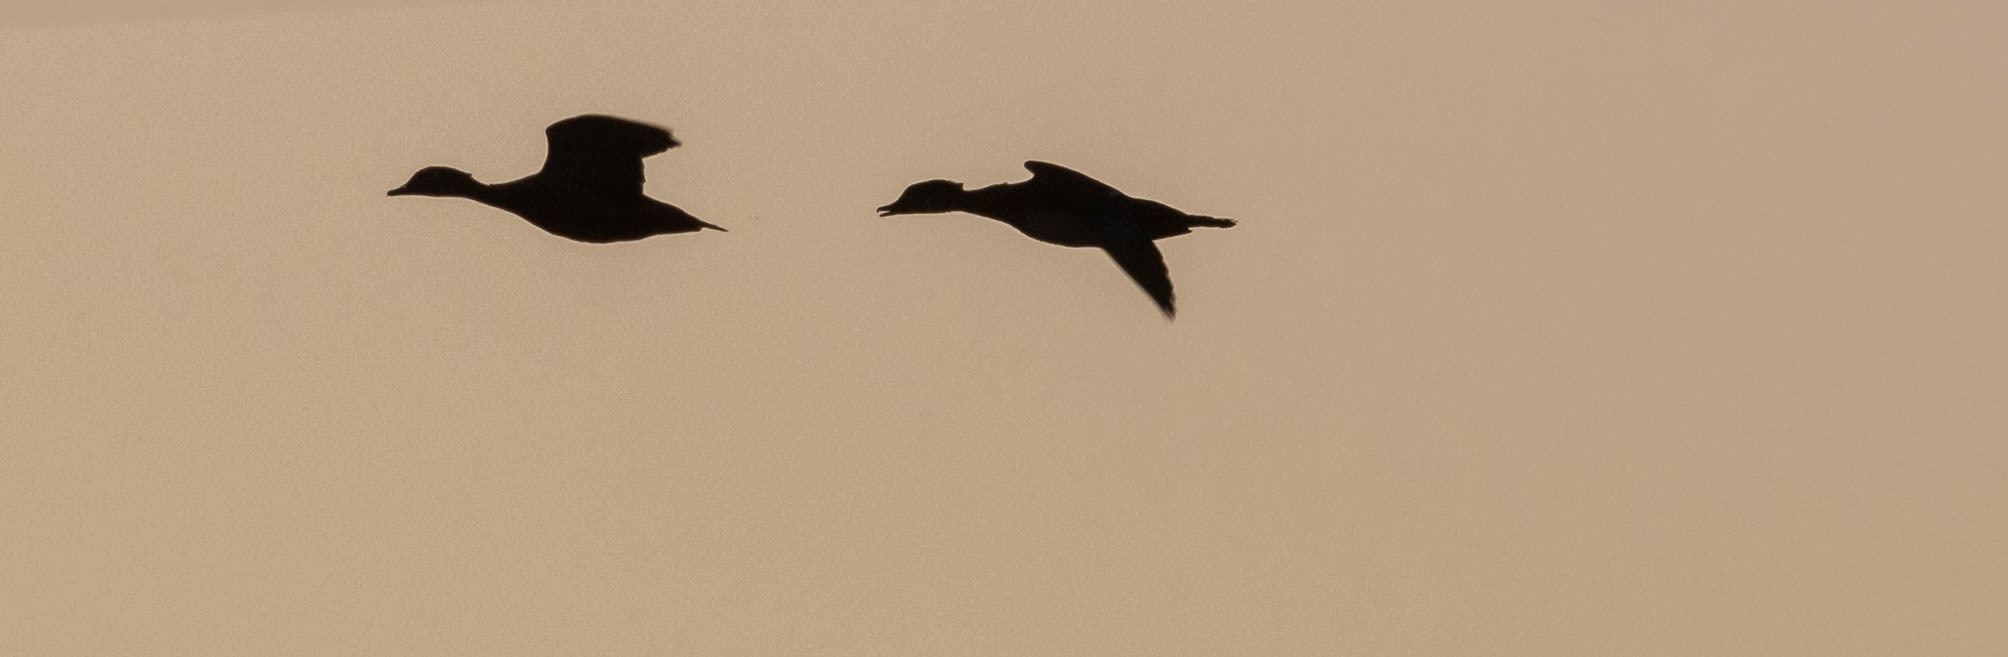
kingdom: Animalia
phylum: Chordata
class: Aves
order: Anseriformes
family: Anatidae
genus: Aix
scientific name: Aix sponsa
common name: Wood duck
